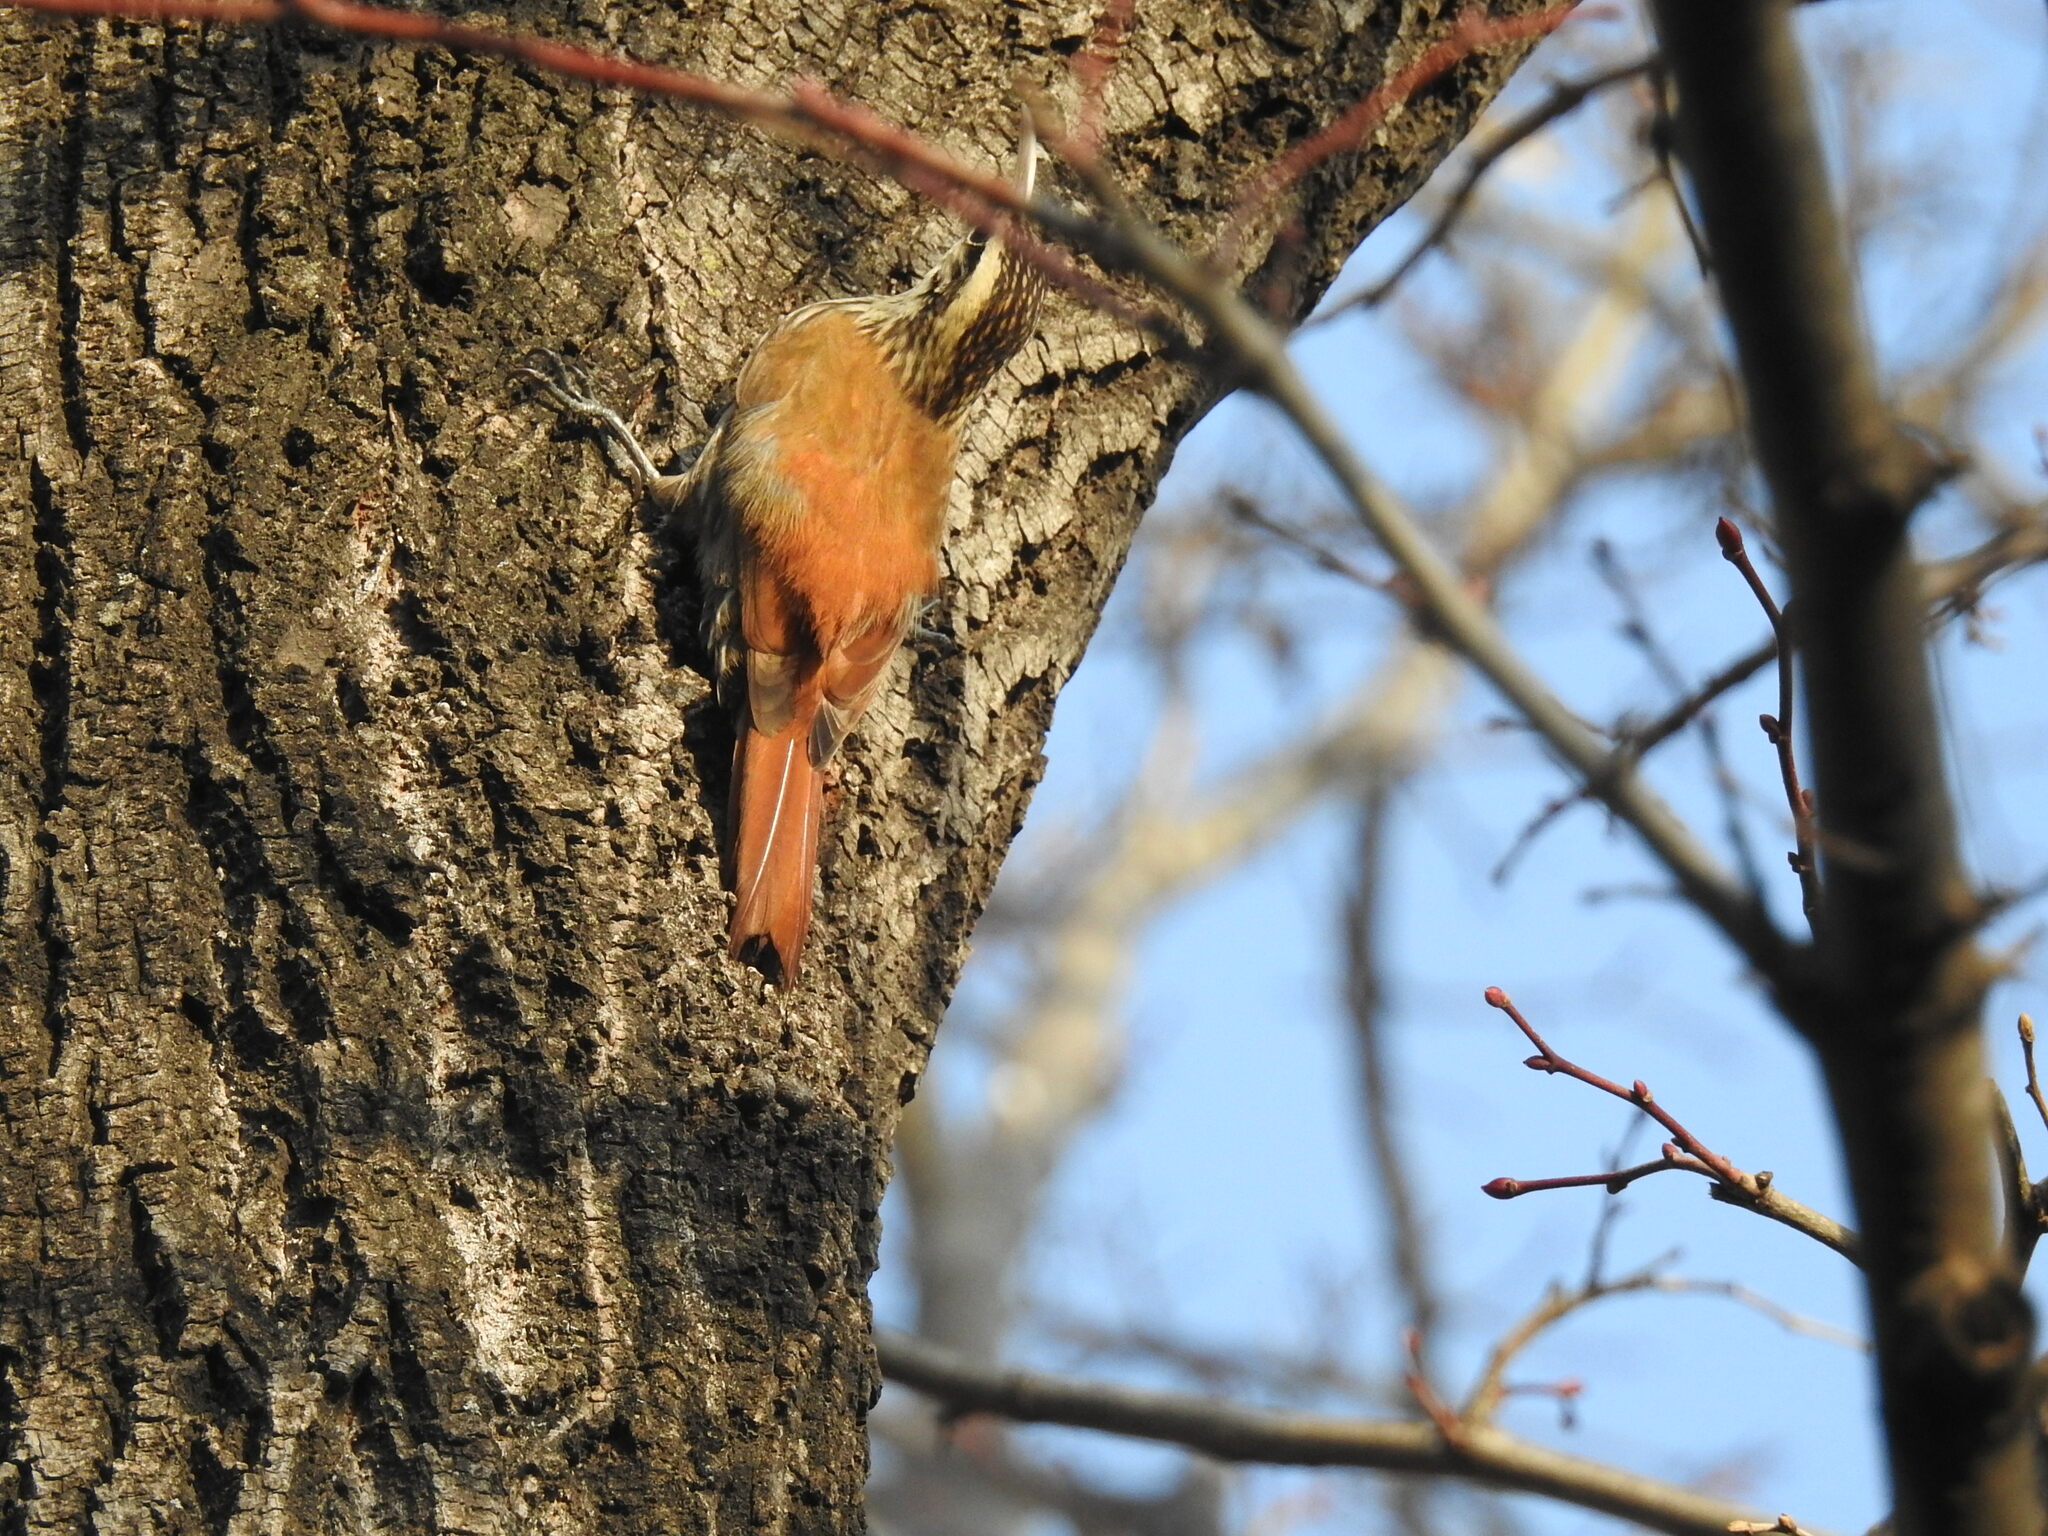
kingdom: Animalia
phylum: Chordata
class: Aves
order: Passeriformes
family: Furnariidae
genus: Lepidocolaptes
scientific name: Lepidocolaptes angustirostris
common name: Narrow-billed woodcreeper
